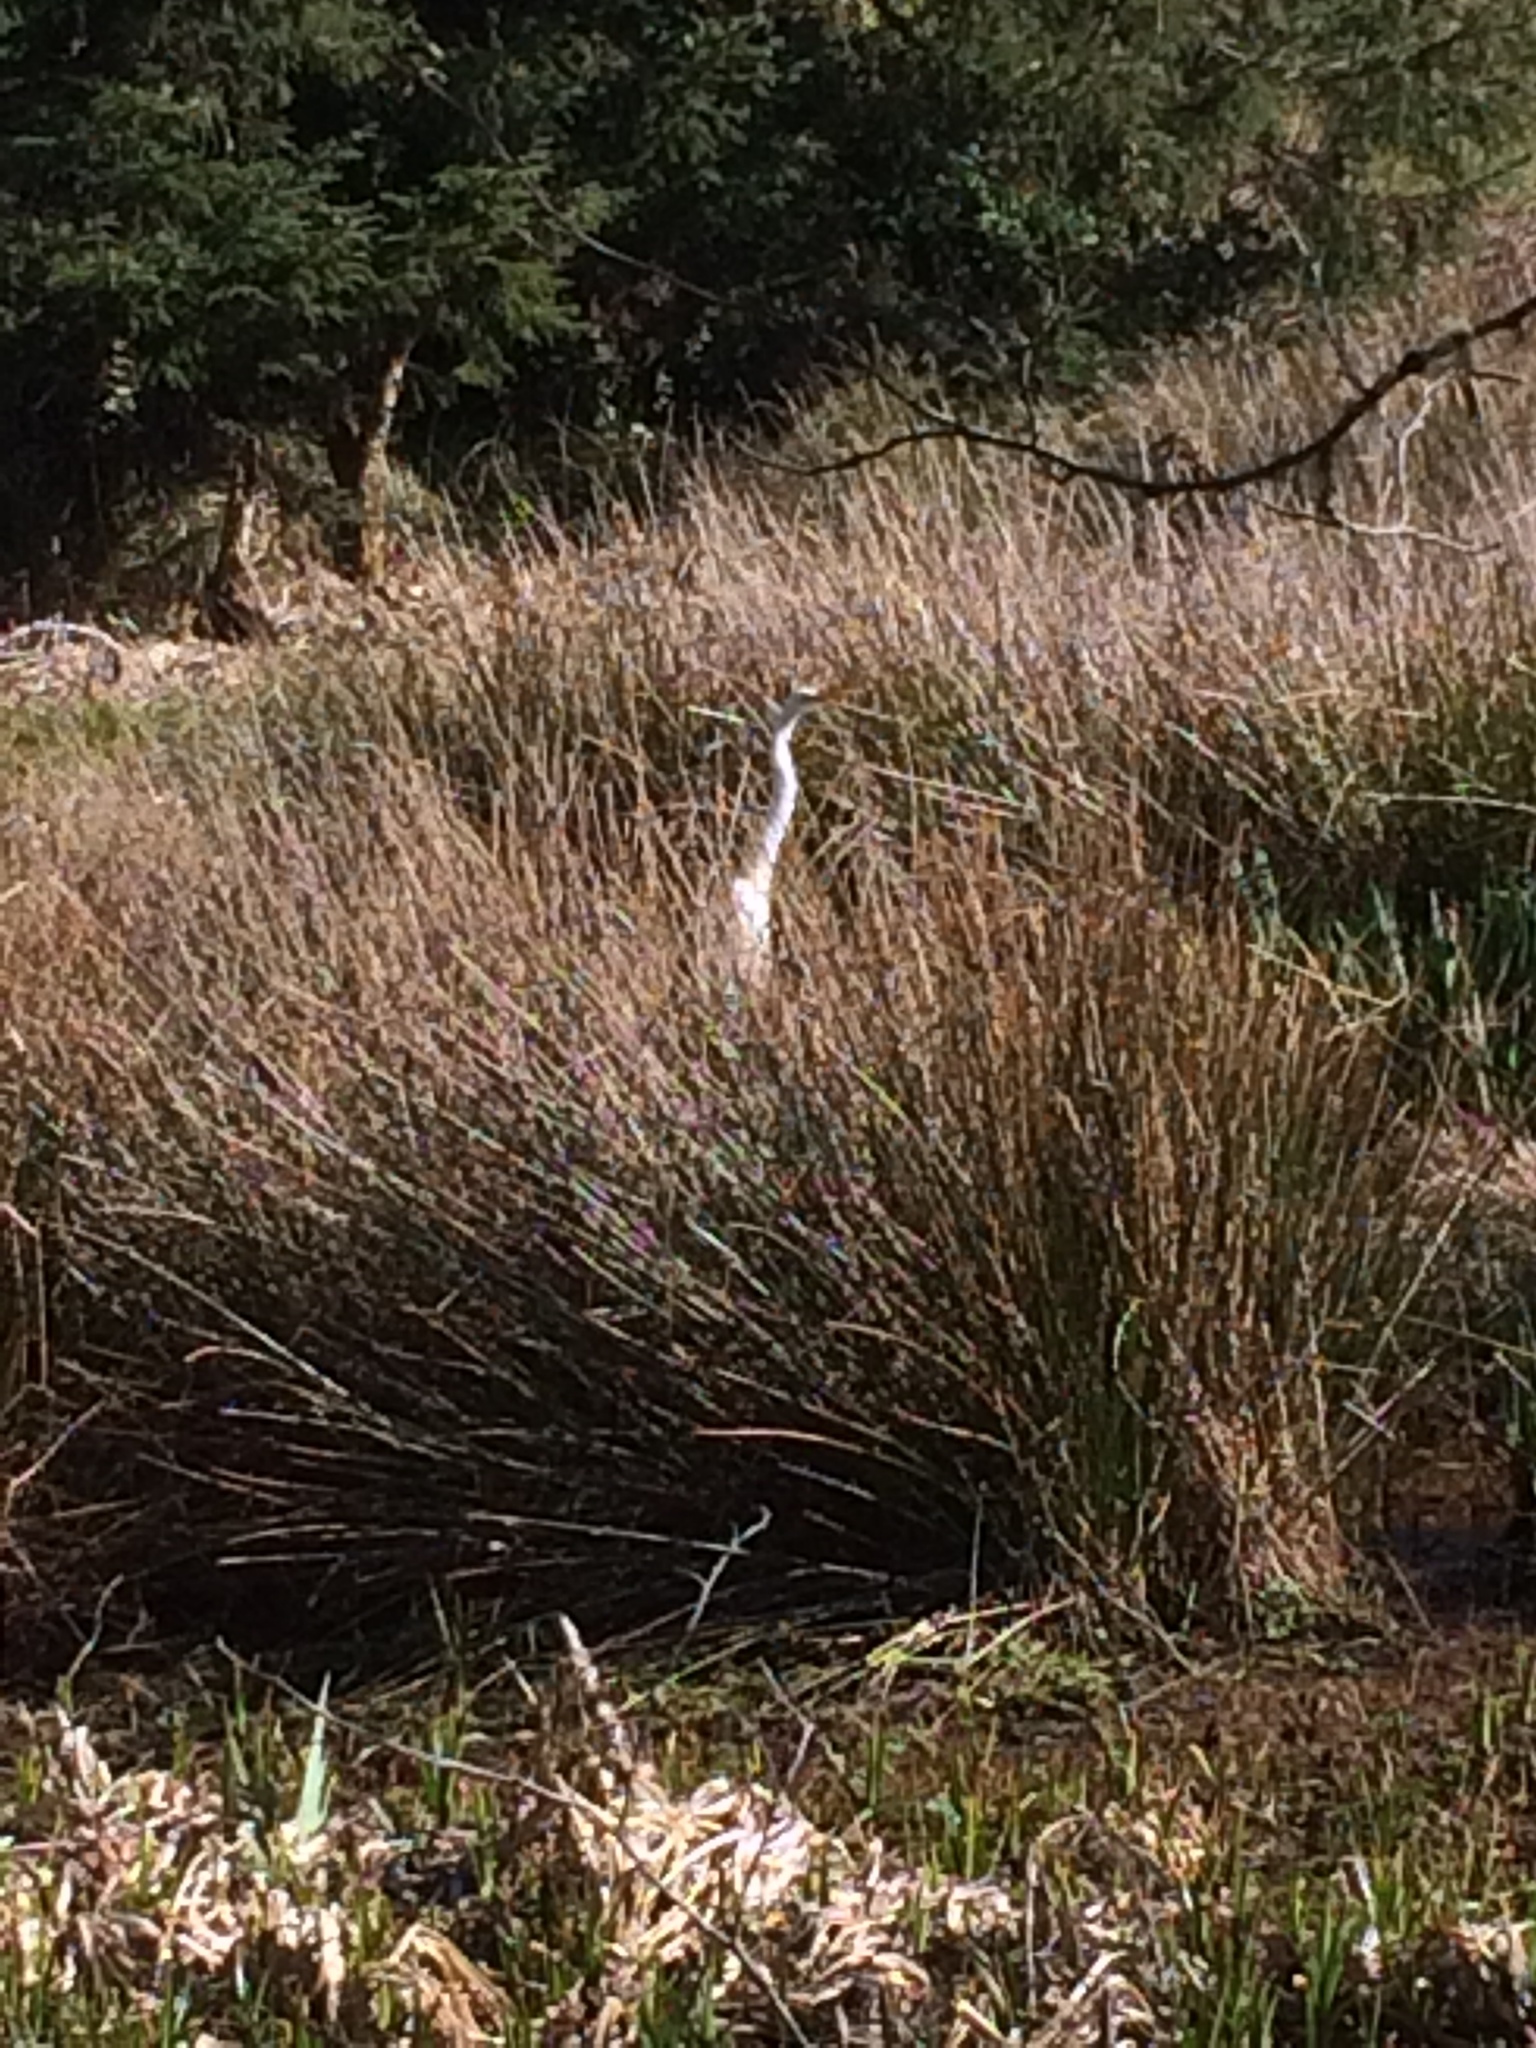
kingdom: Animalia
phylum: Chordata
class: Aves
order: Pelecaniformes
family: Ardeidae
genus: Ardea
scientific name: Ardea alba
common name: Great egret
